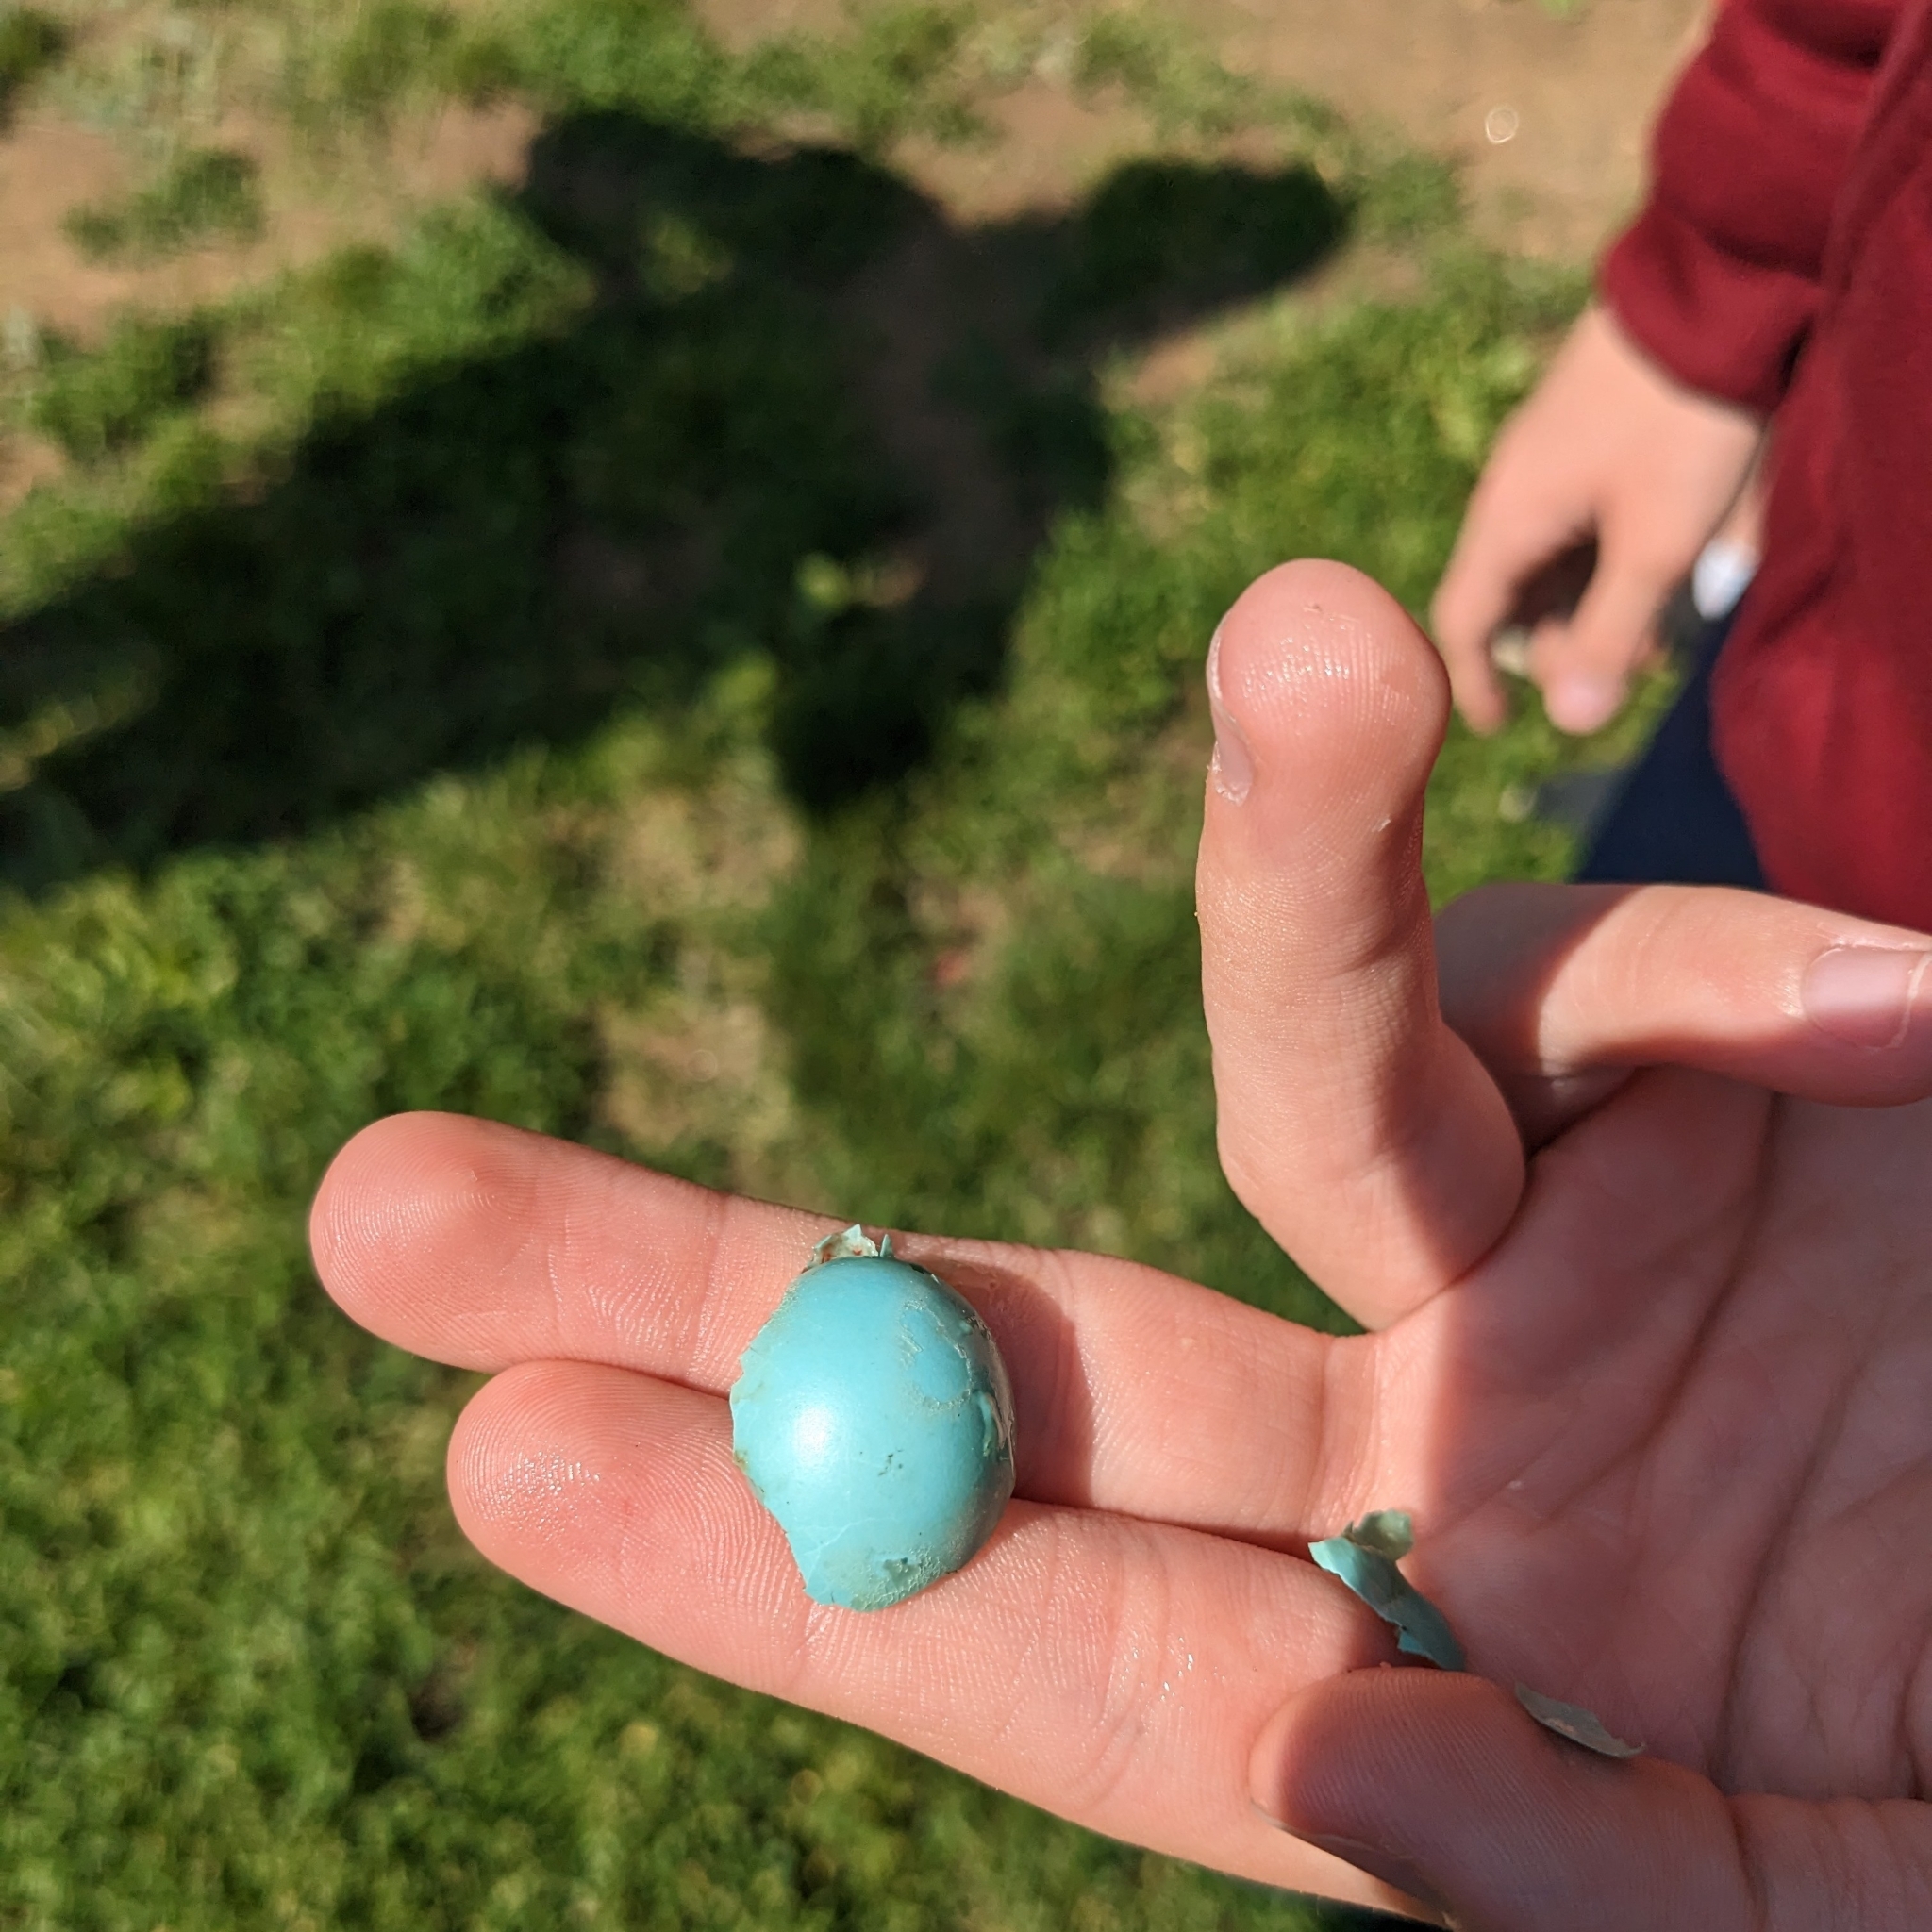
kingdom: Animalia
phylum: Chordata
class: Aves
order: Passeriformes
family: Turdidae
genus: Turdus
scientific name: Turdus migratorius
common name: American robin
